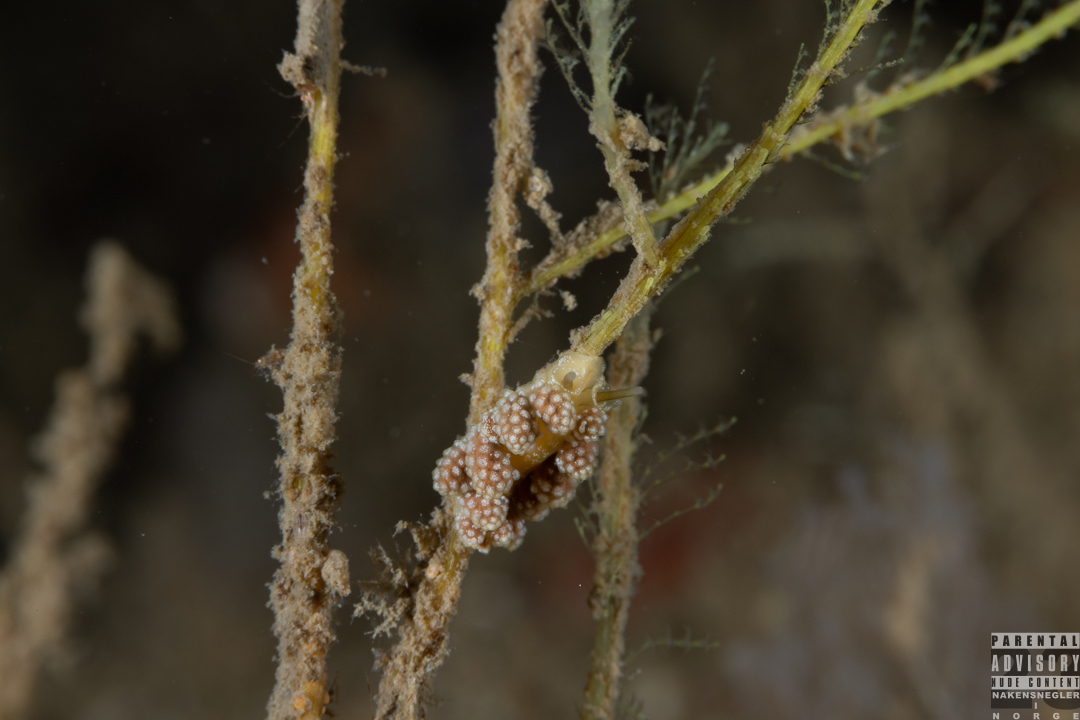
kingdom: Animalia
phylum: Mollusca
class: Gastropoda
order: Nudibranchia
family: Dotidae
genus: Doto
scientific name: Doto fragilis
